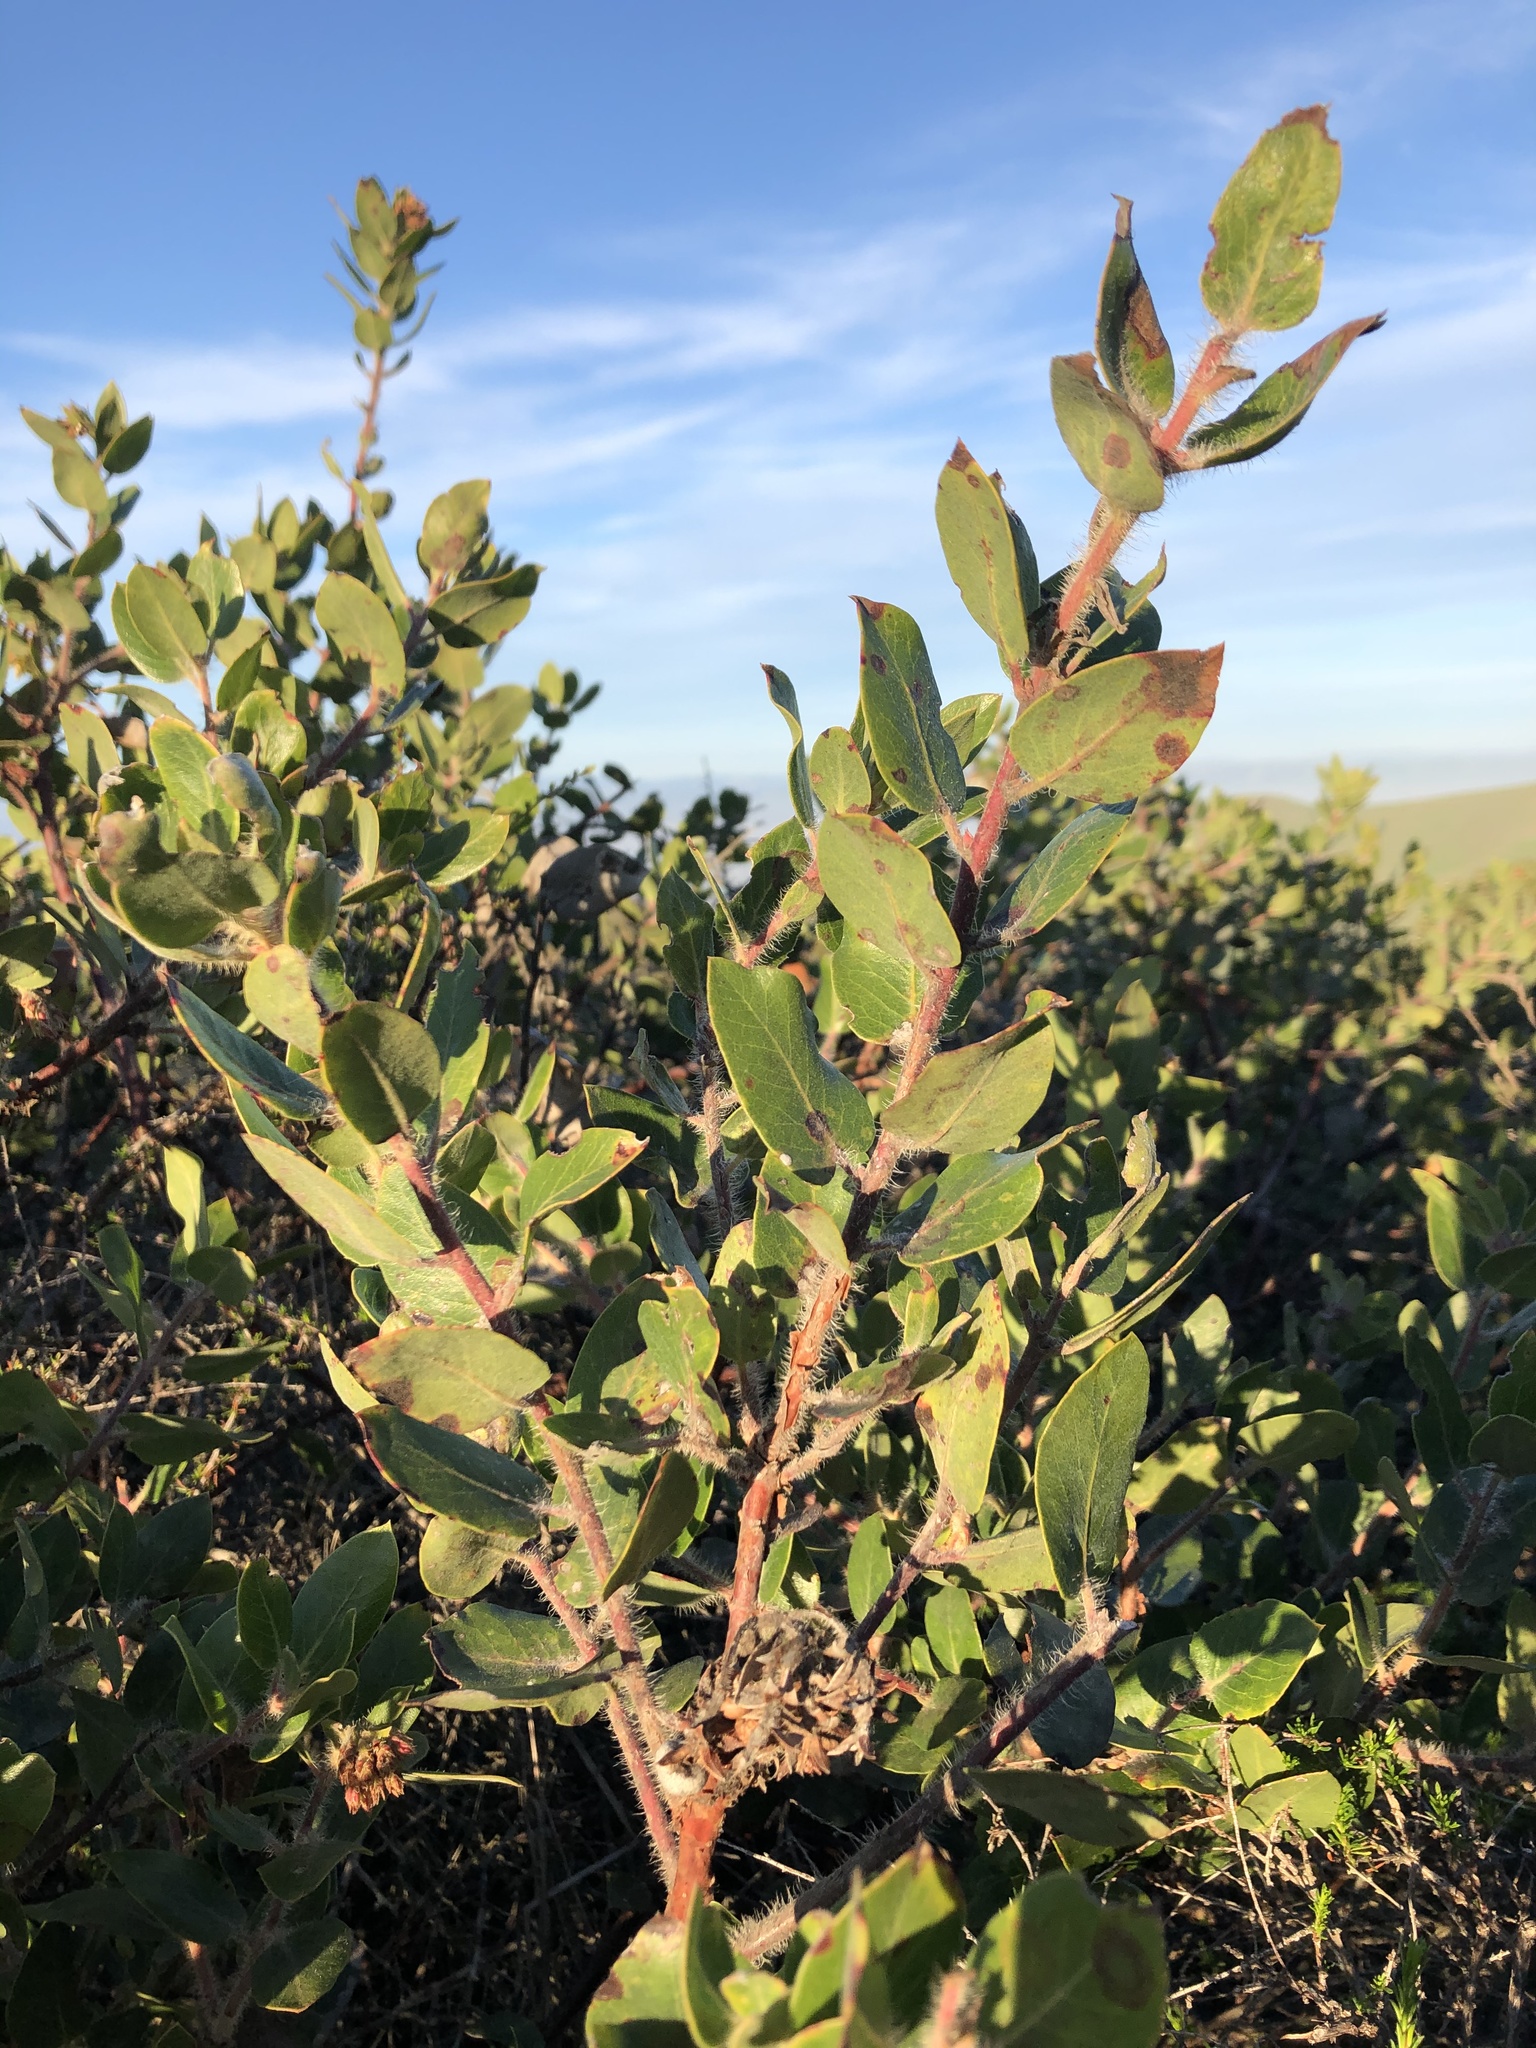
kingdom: Plantae
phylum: Tracheophyta
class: Magnoliopsida
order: Ericales
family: Ericaceae
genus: Arctostaphylos
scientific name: Arctostaphylos crustacea
